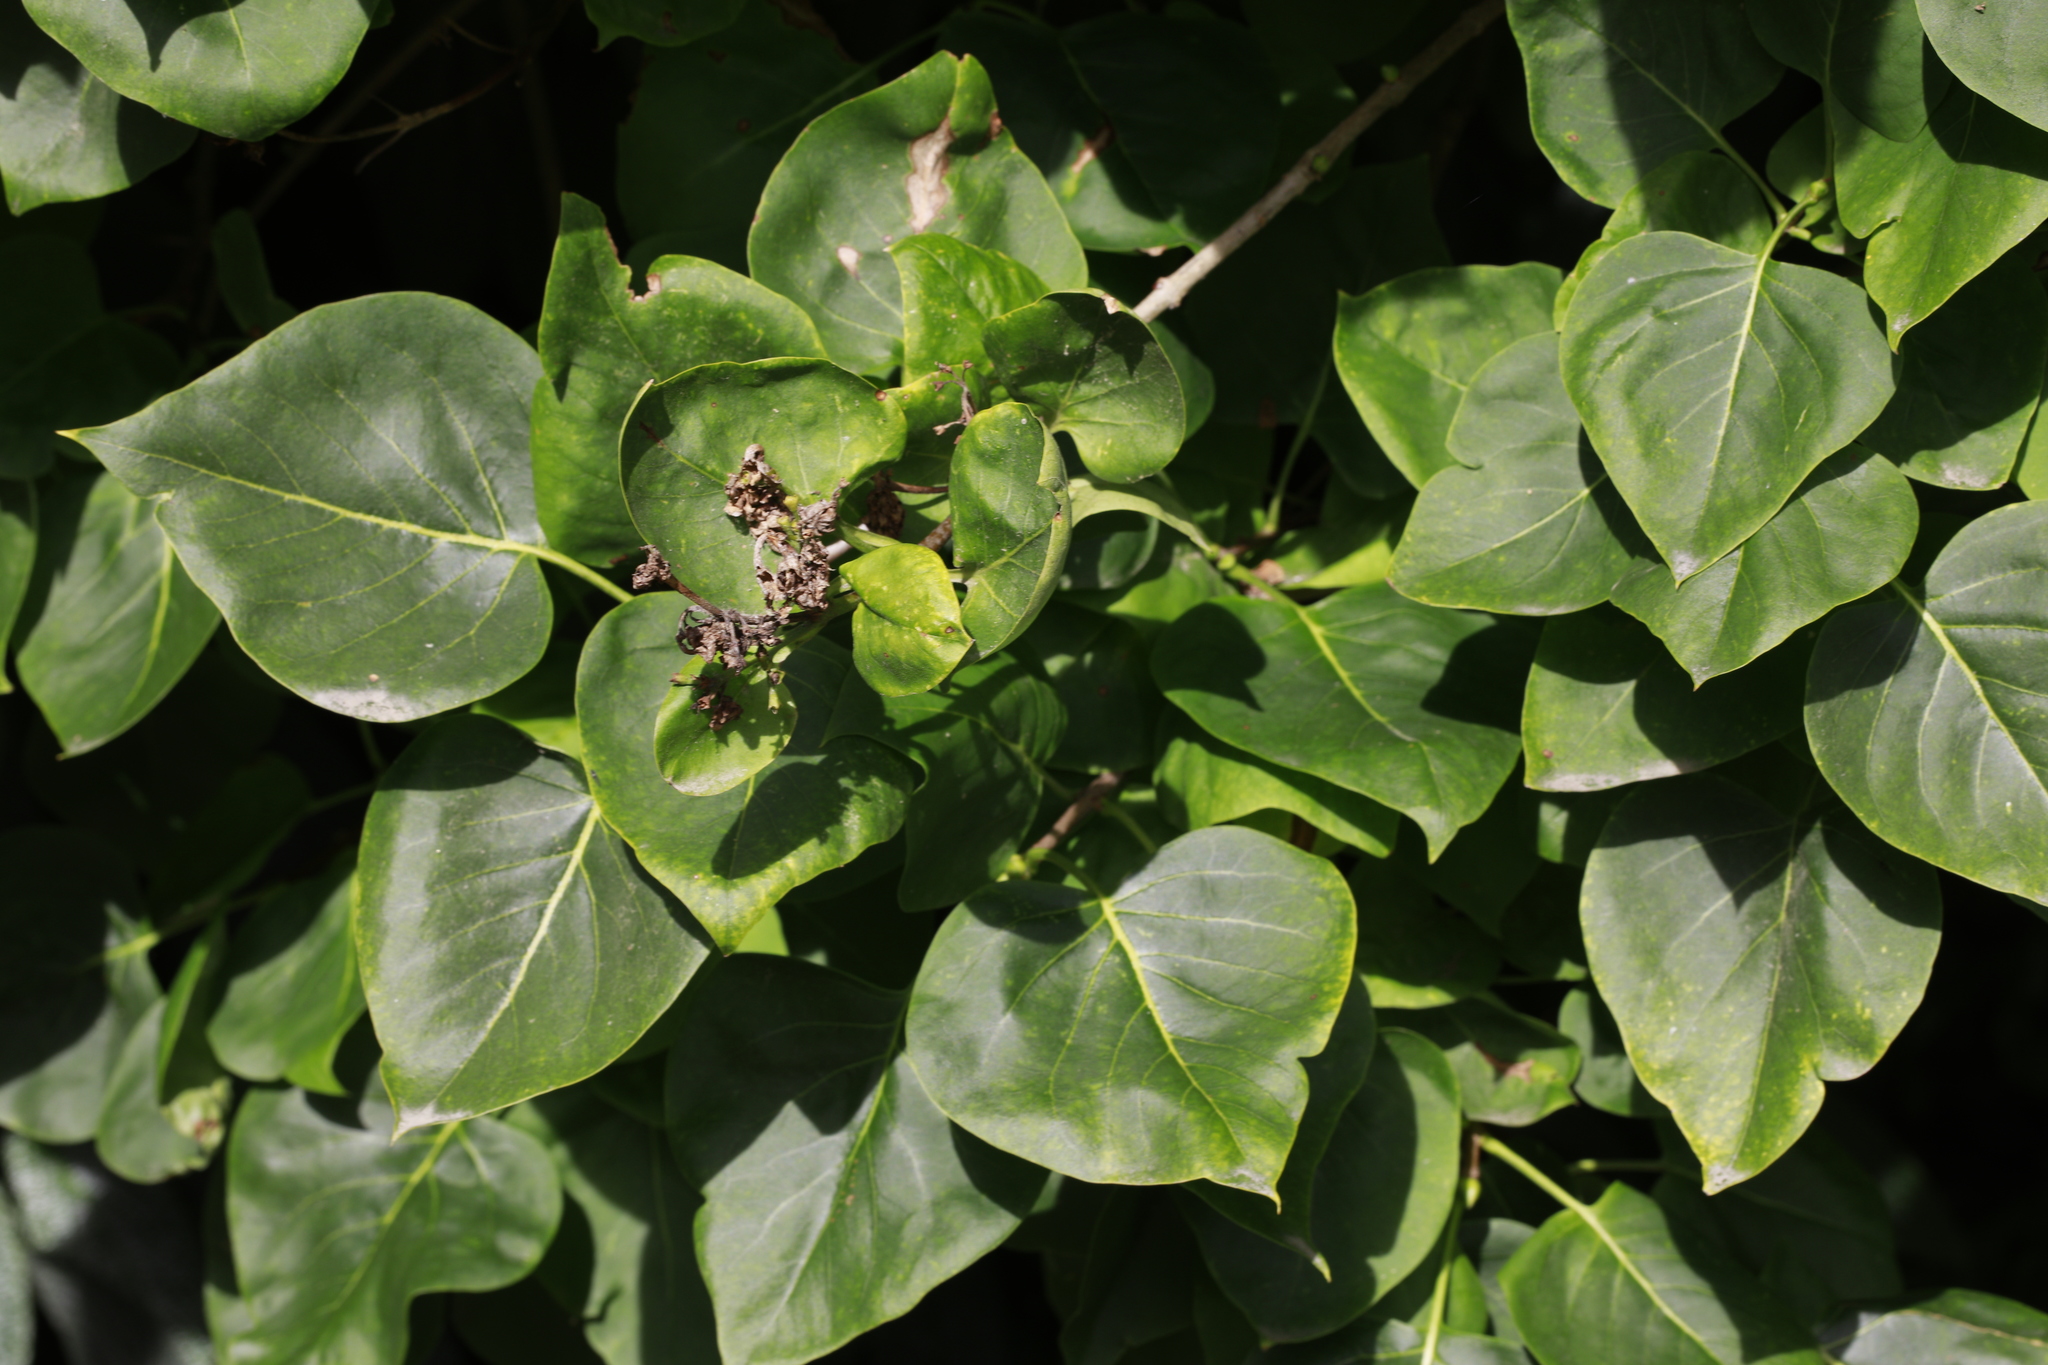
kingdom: Plantae
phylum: Tracheophyta
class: Magnoliopsida
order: Lamiales
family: Oleaceae
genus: Syringa
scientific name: Syringa vulgaris
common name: Common lilac
